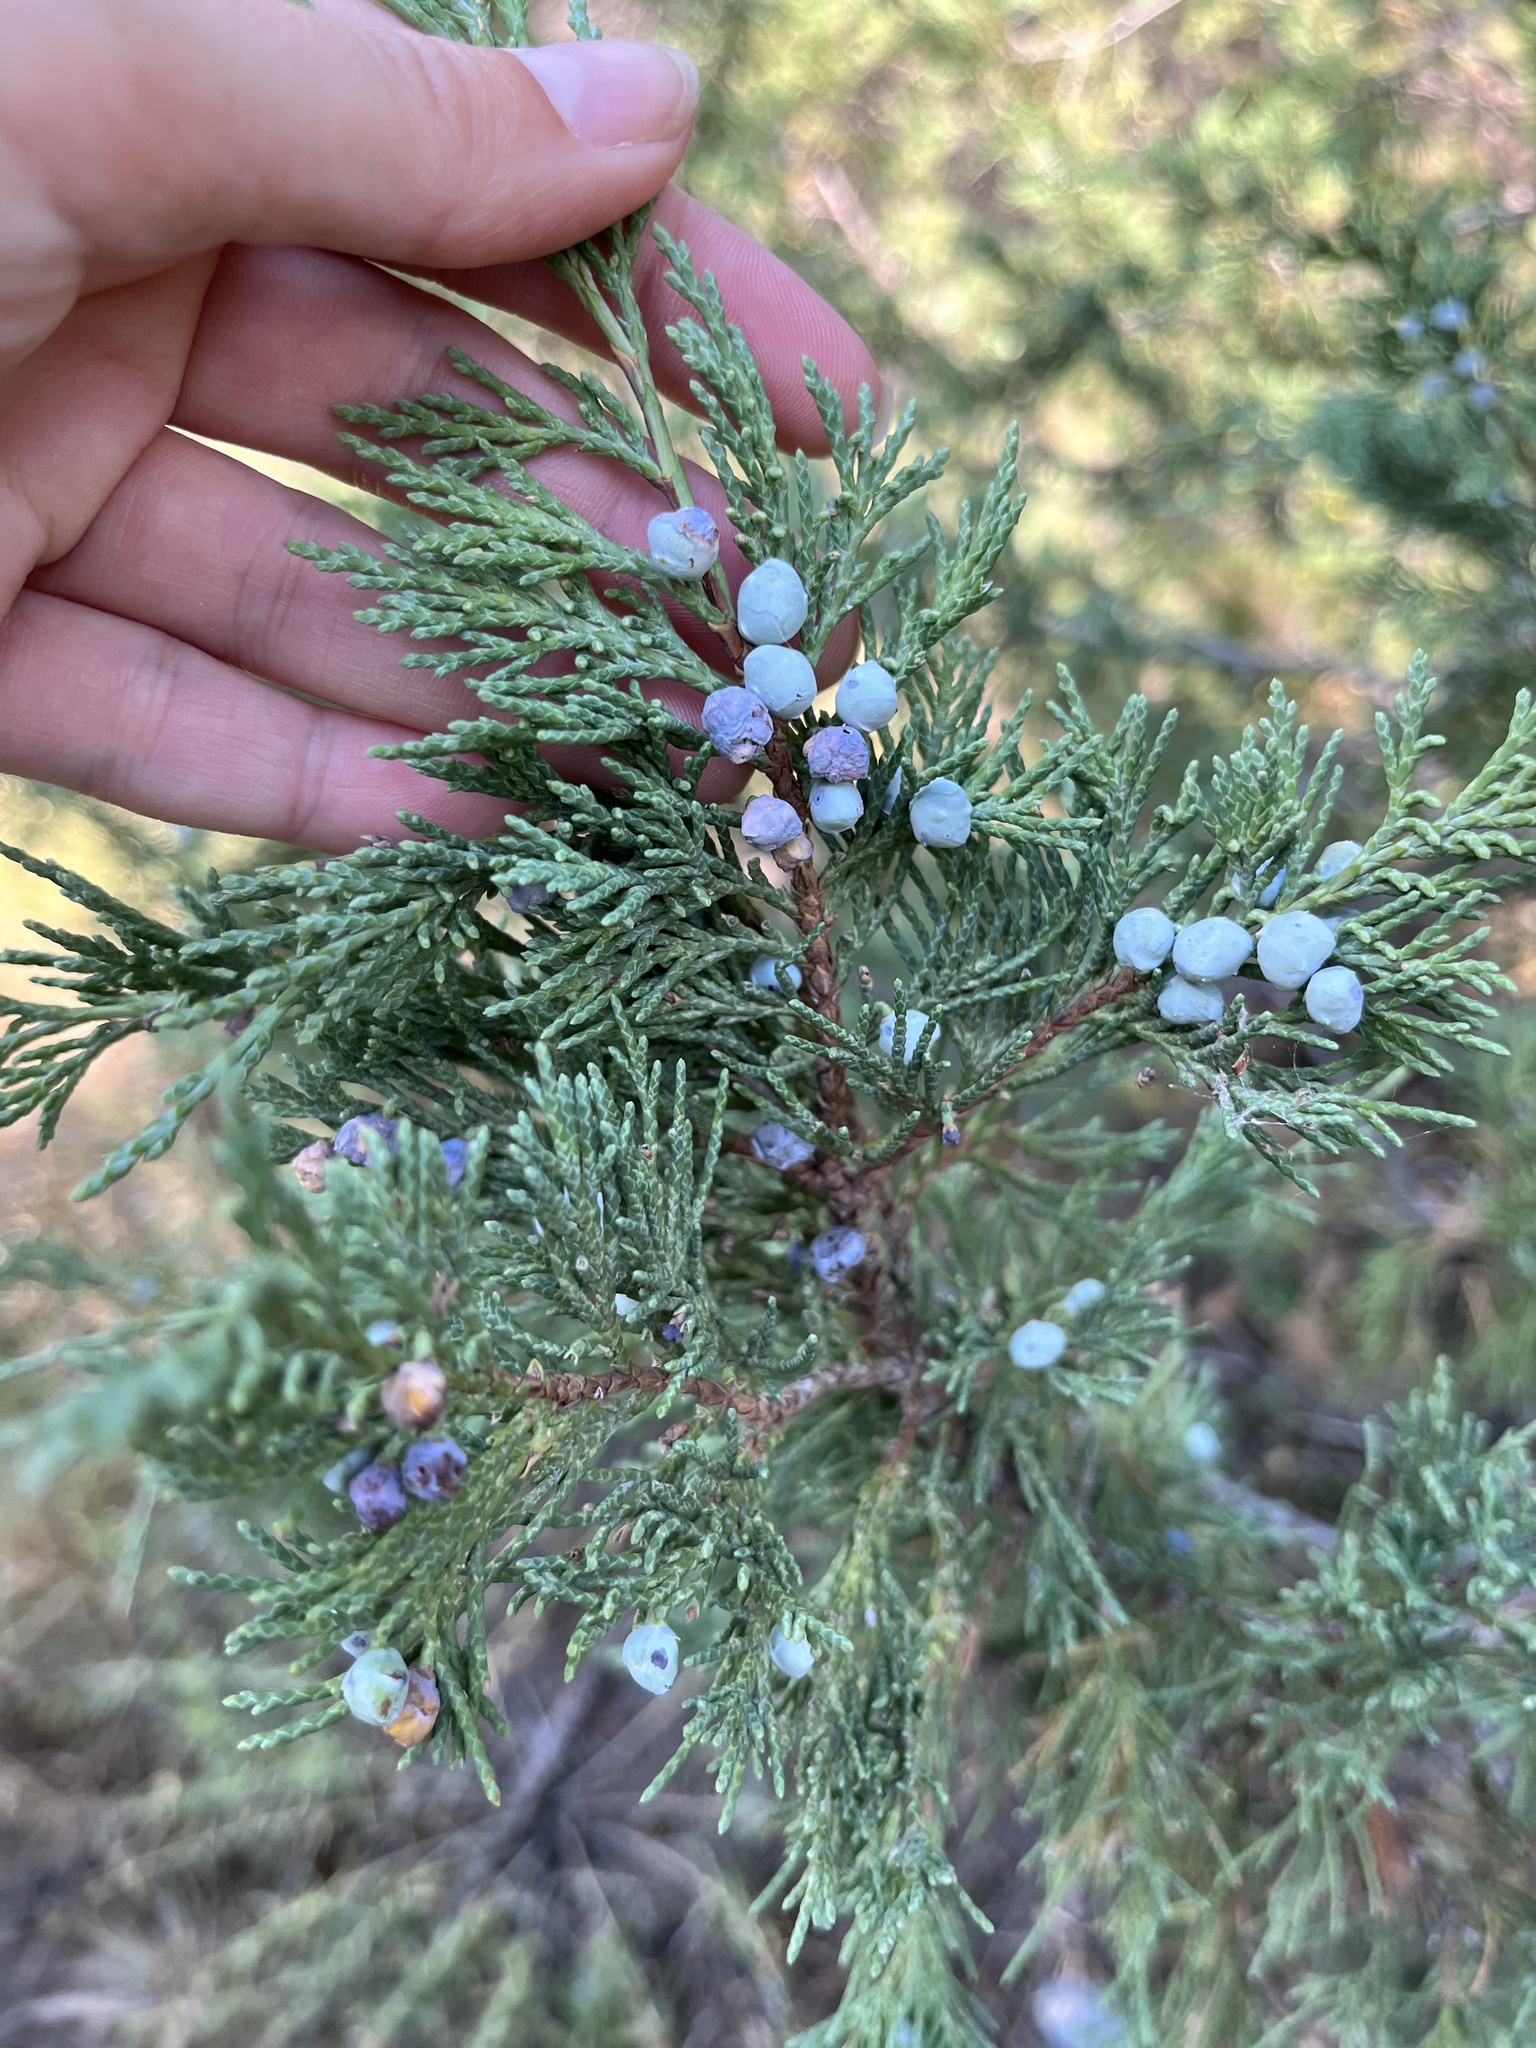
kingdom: Plantae
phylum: Tracheophyta
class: Pinopsida
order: Pinales
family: Cupressaceae
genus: Juniperus
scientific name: Juniperus scopulorum
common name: Rocky mountain juniper
